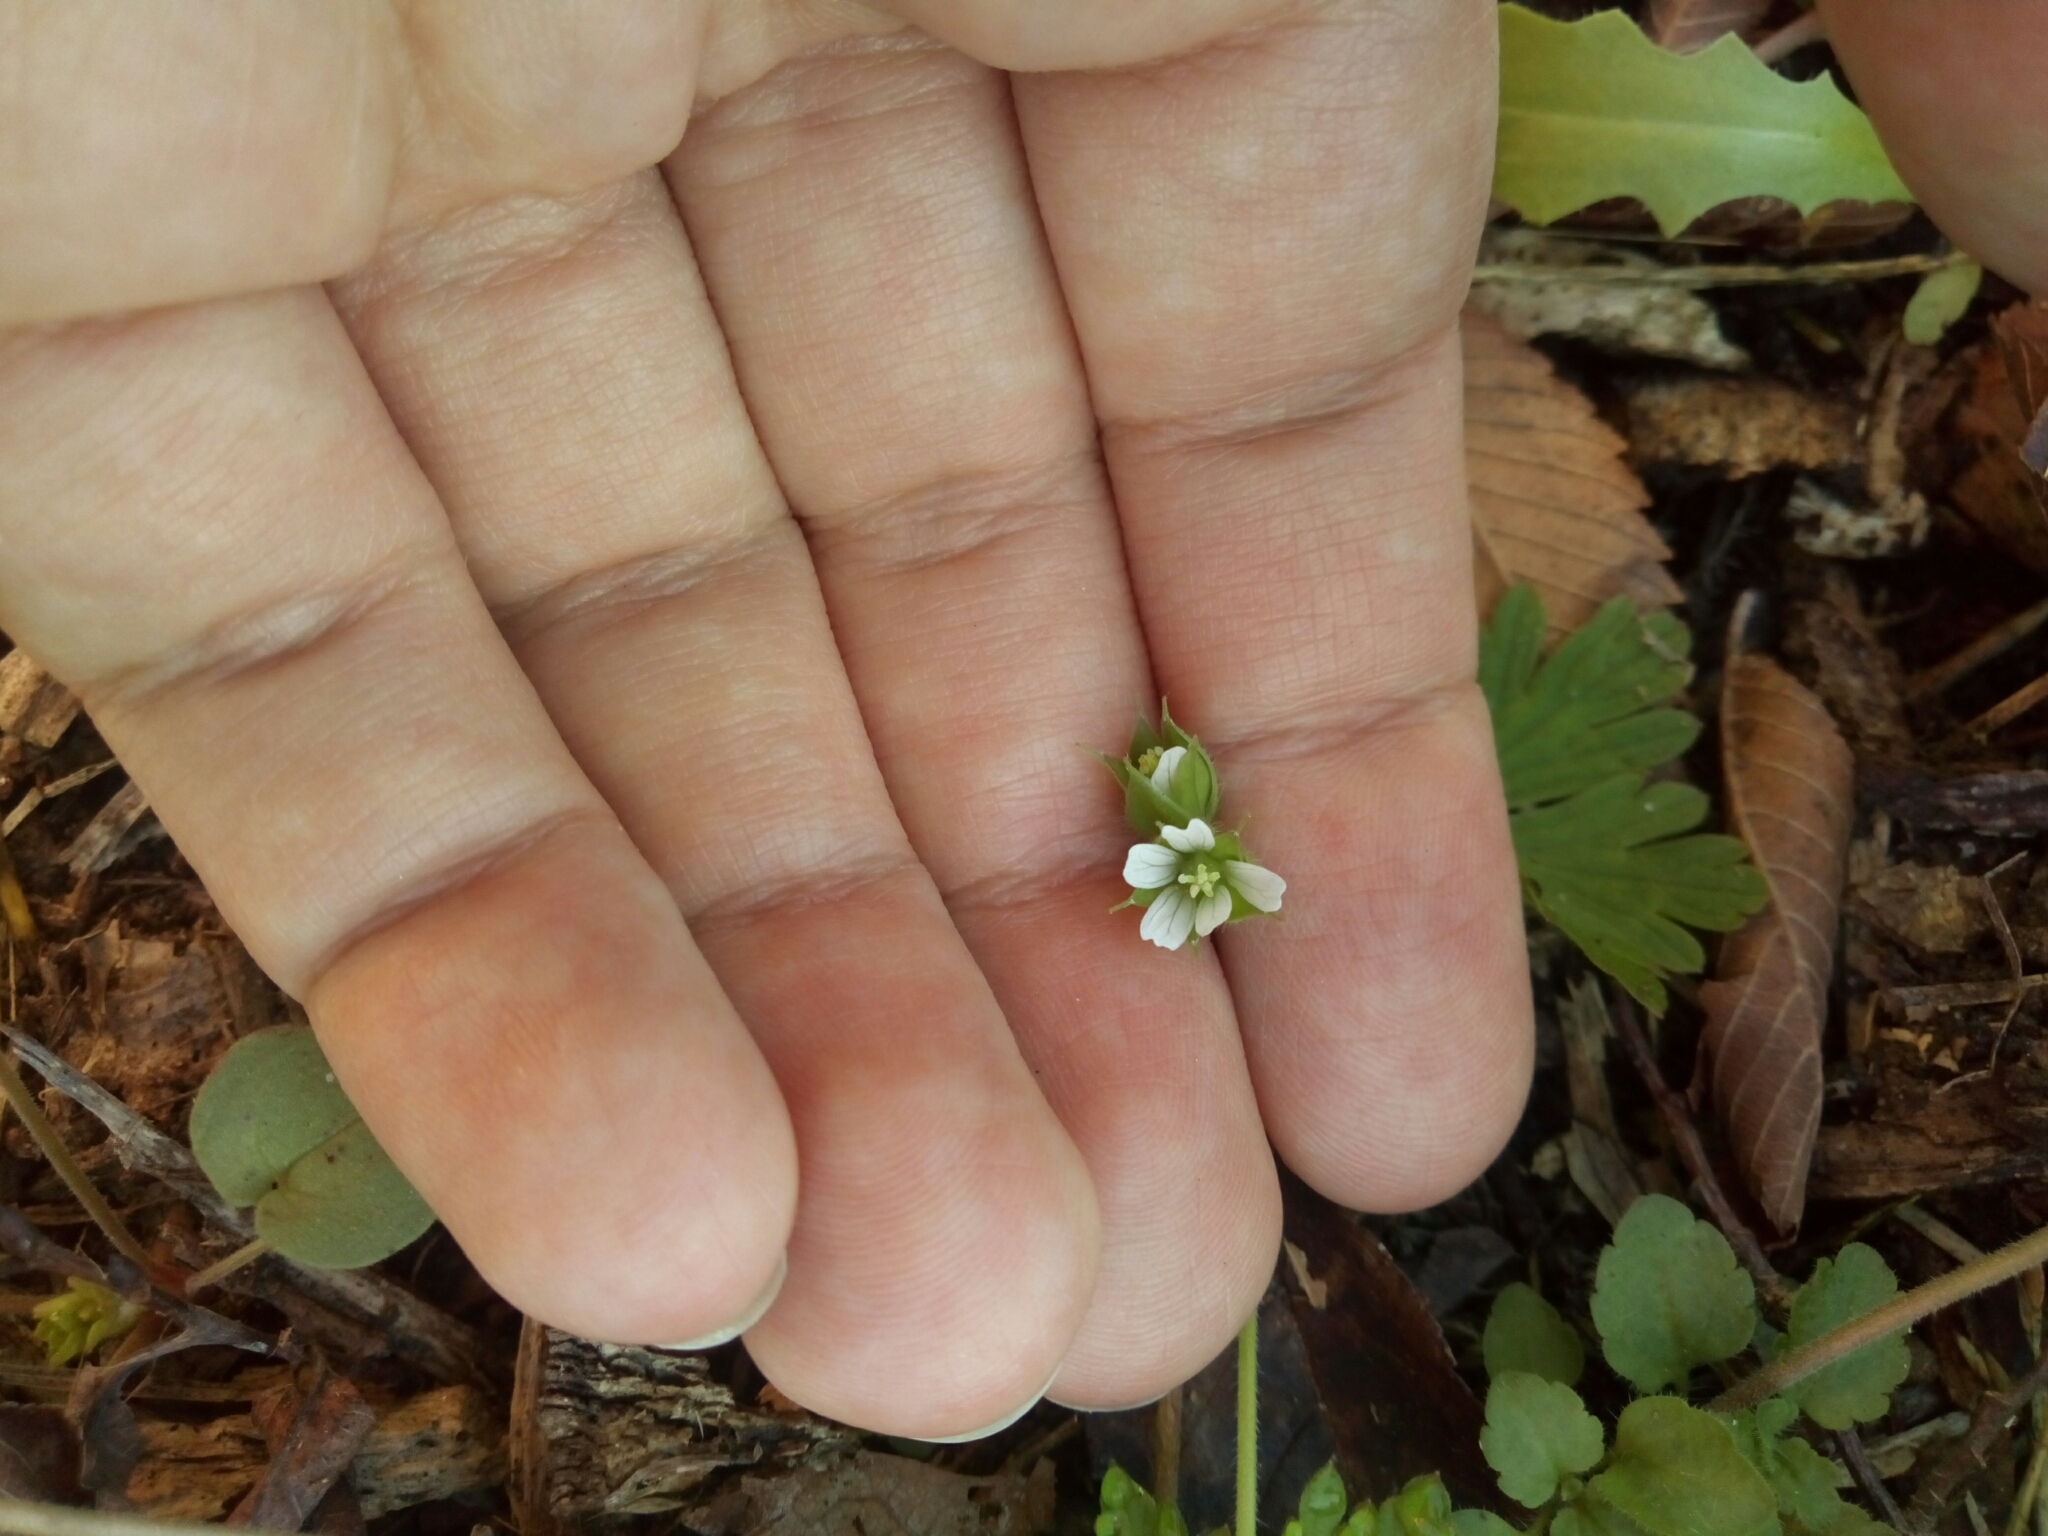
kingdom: Plantae
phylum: Tracheophyta
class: Magnoliopsida
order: Geraniales
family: Geraniaceae
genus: Geranium
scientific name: Geranium carolinianum
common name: Carolina crane's-bill
